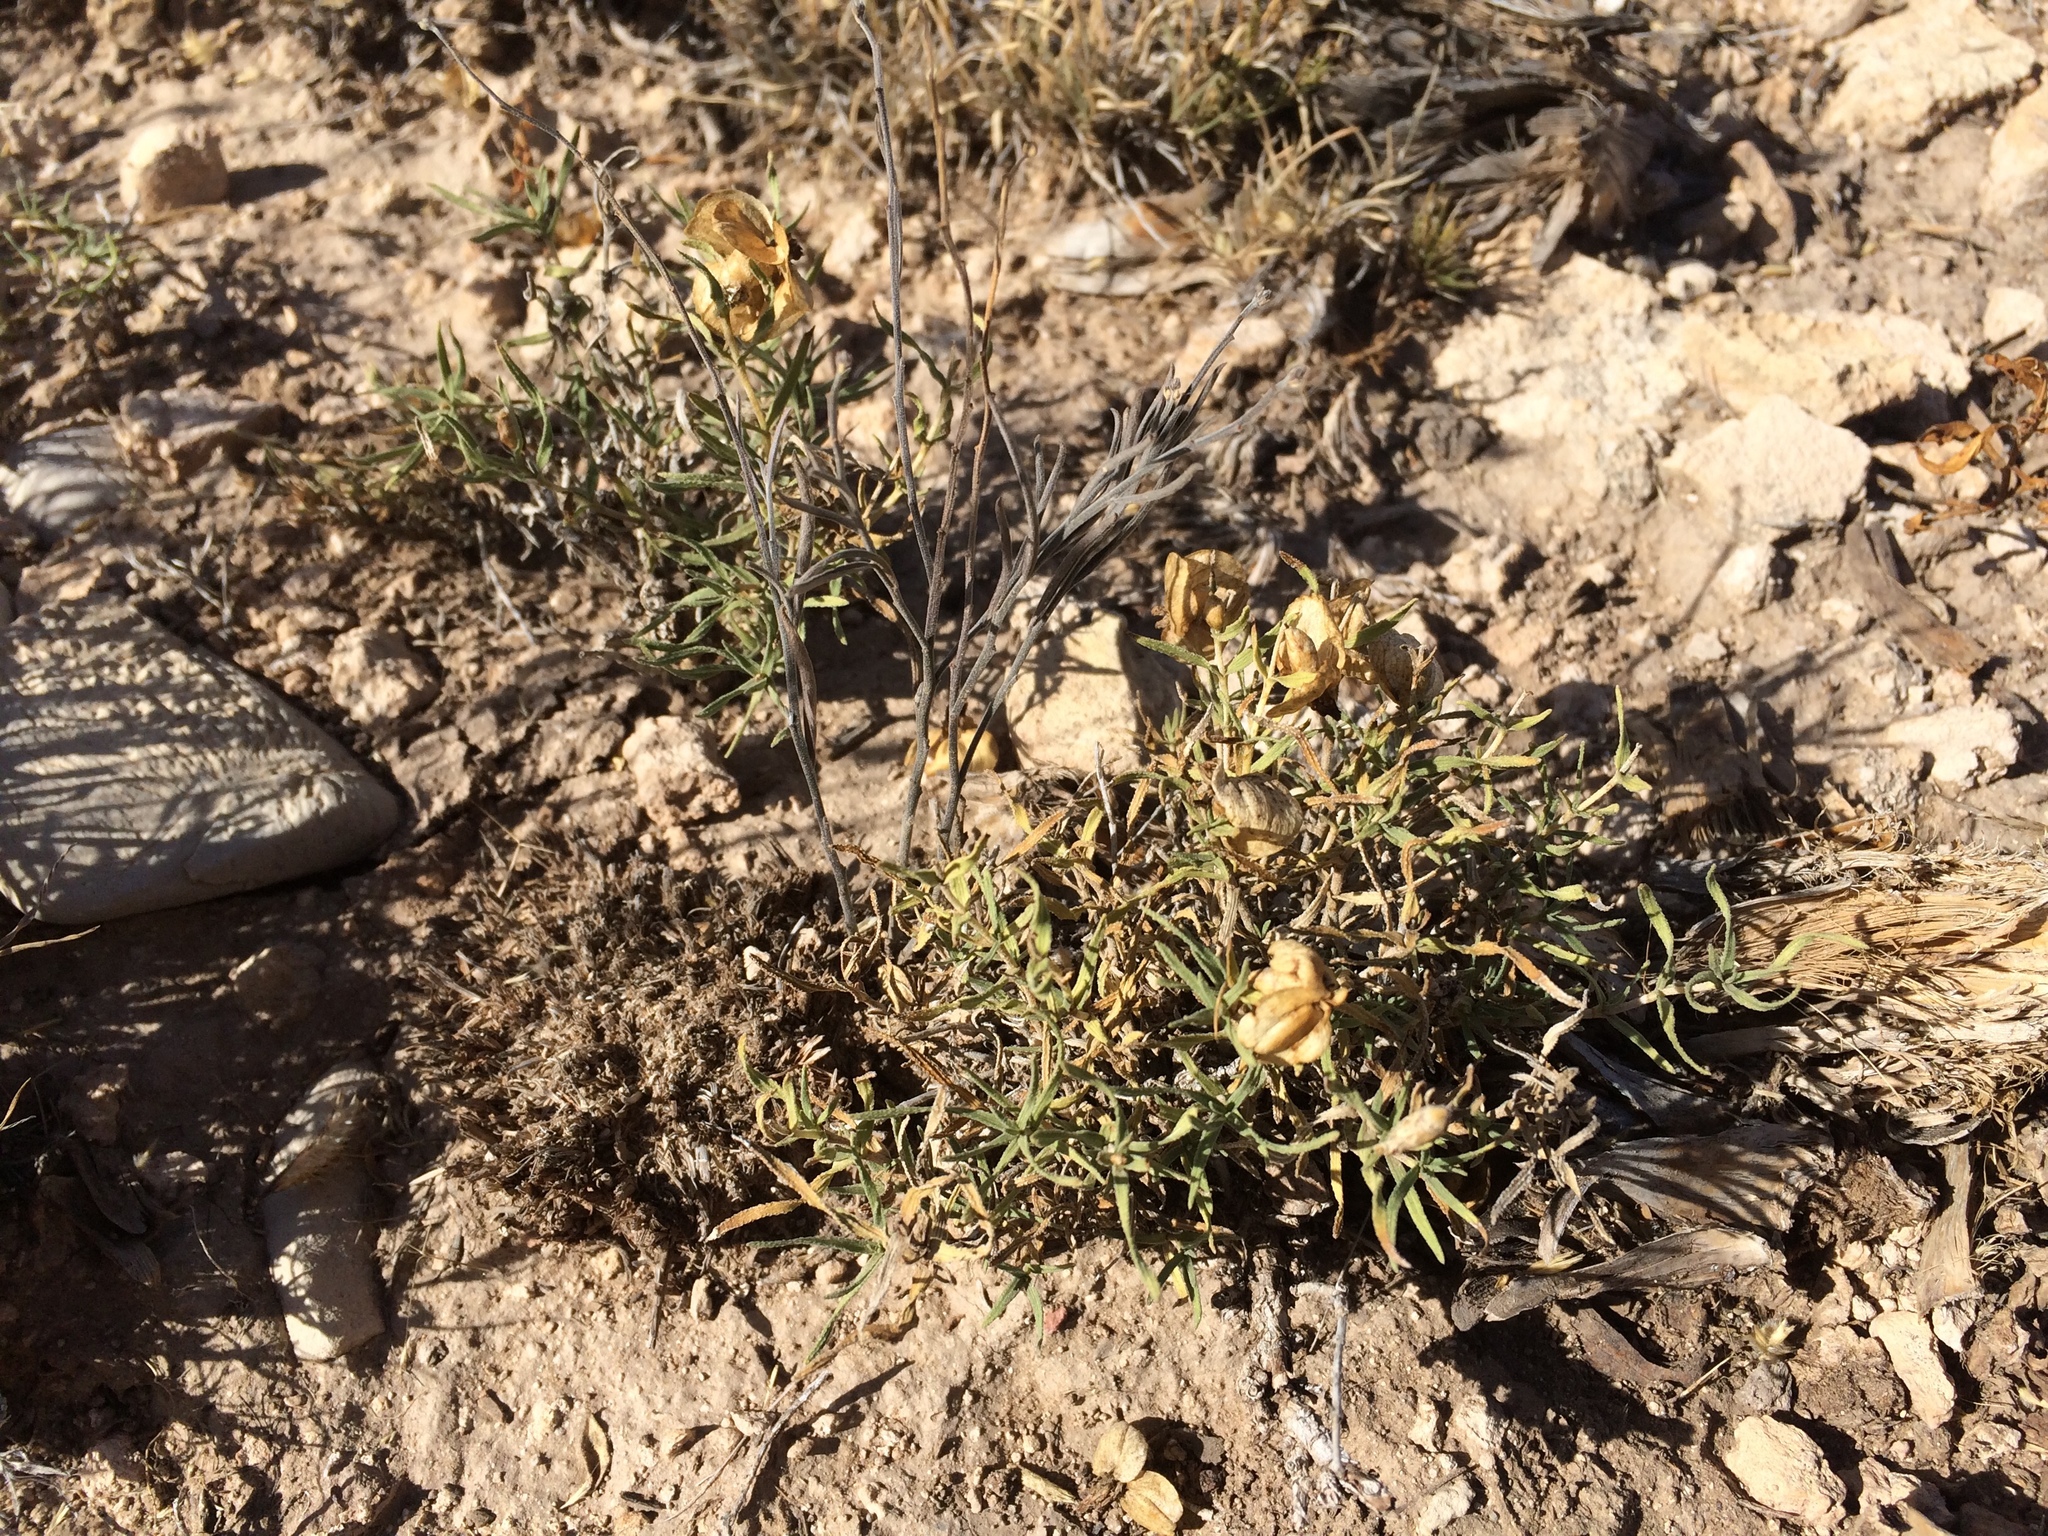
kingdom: Plantae
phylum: Tracheophyta
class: Magnoliopsida
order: Asterales
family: Asteraceae
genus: Zinnia
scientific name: Zinnia grandiflora
